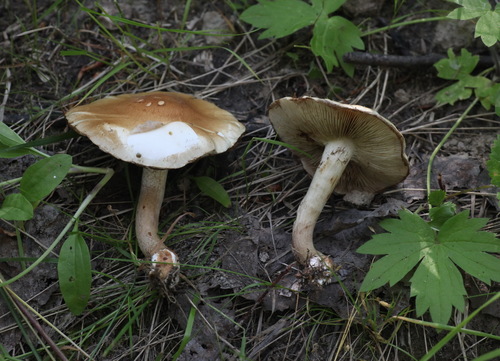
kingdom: Fungi
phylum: Basidiomycota
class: Agaricomycetes
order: Agaricales
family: Strophariaceae
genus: Pholiota
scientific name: Pholiota mixta
